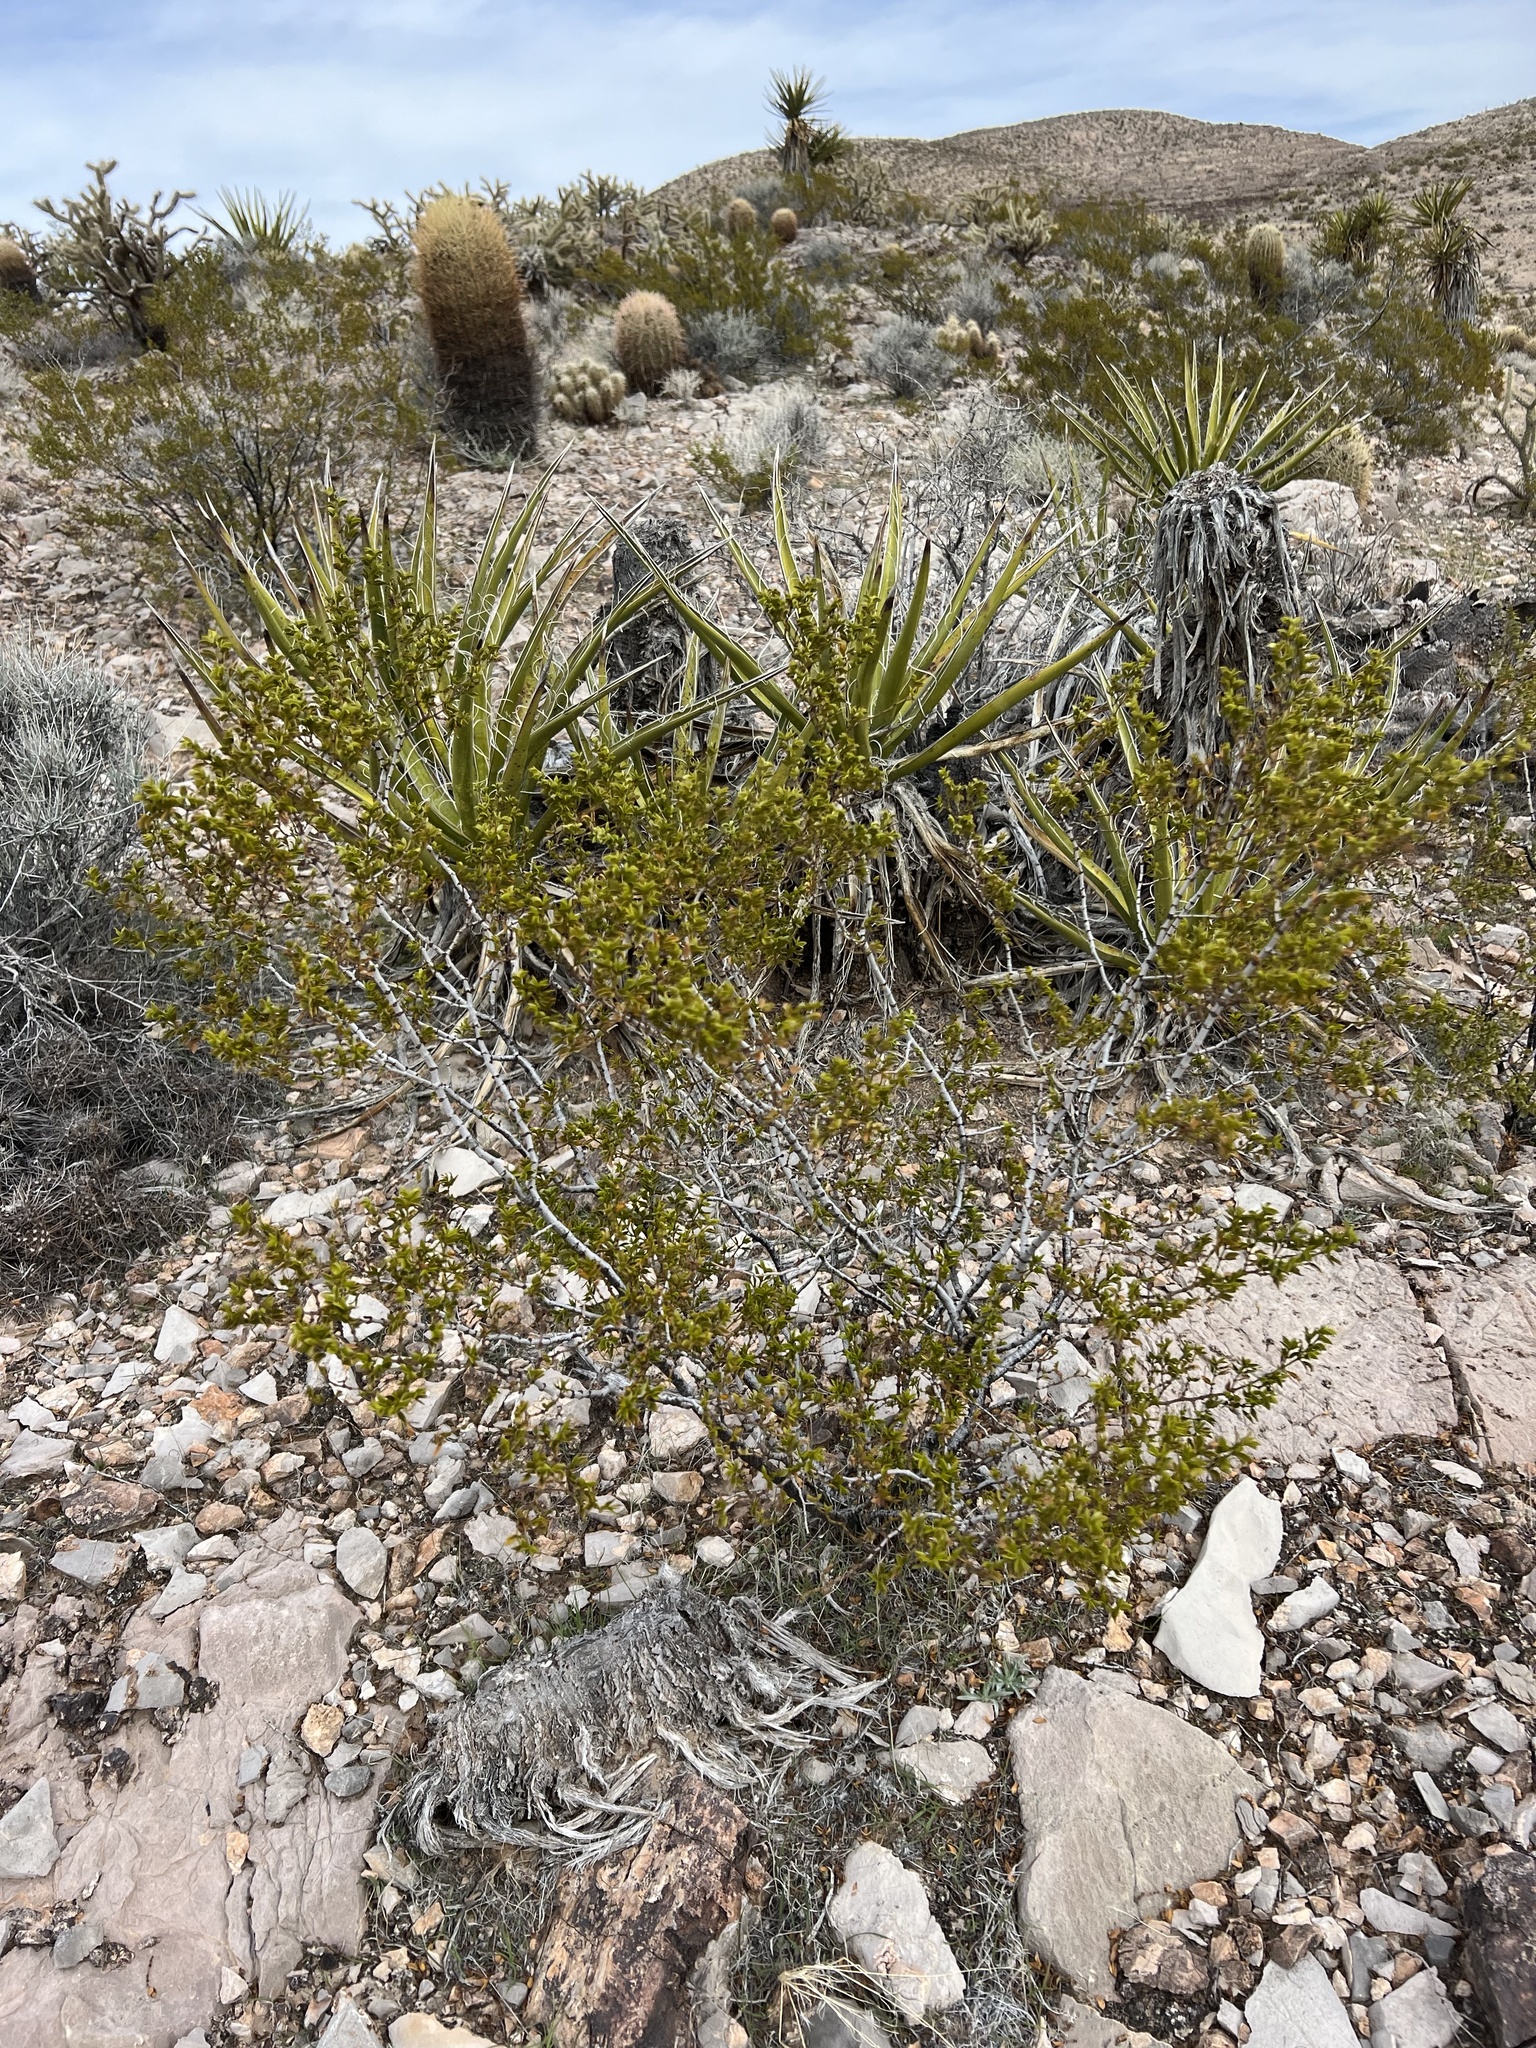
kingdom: Plantae
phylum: Tracheophyta
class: Magnoliopsida
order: Zygophyllales
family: Zygophyllaceae
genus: Larrea
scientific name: Larrea tridentata
